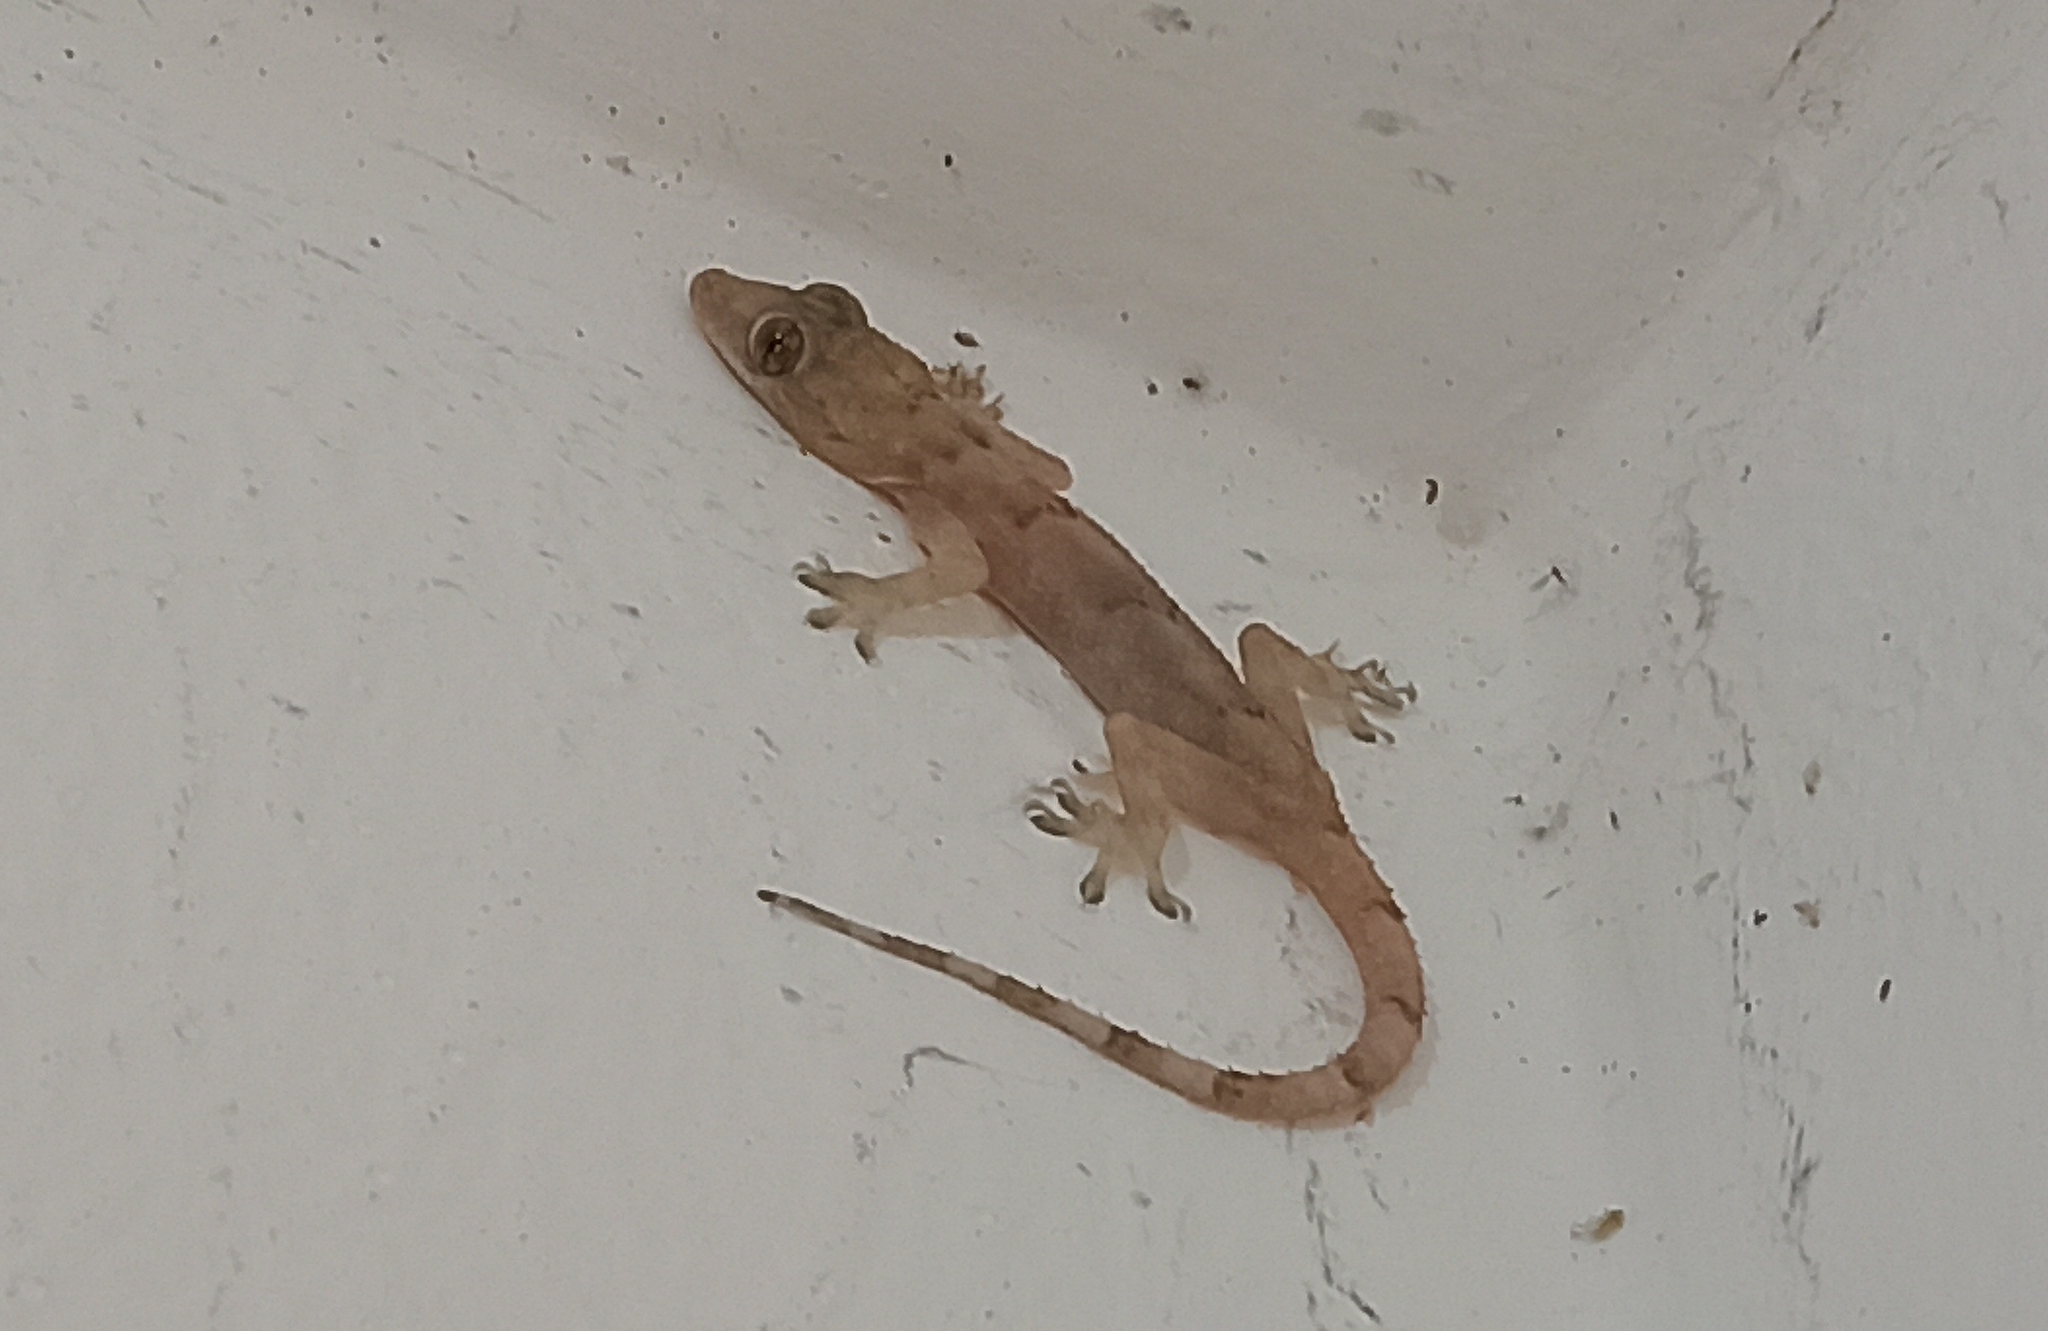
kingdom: Animalia
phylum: Chordata
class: Squamata
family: Gekkonidae
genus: Hemidactylus
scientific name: Hemidactylus mabouia
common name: House gecko
